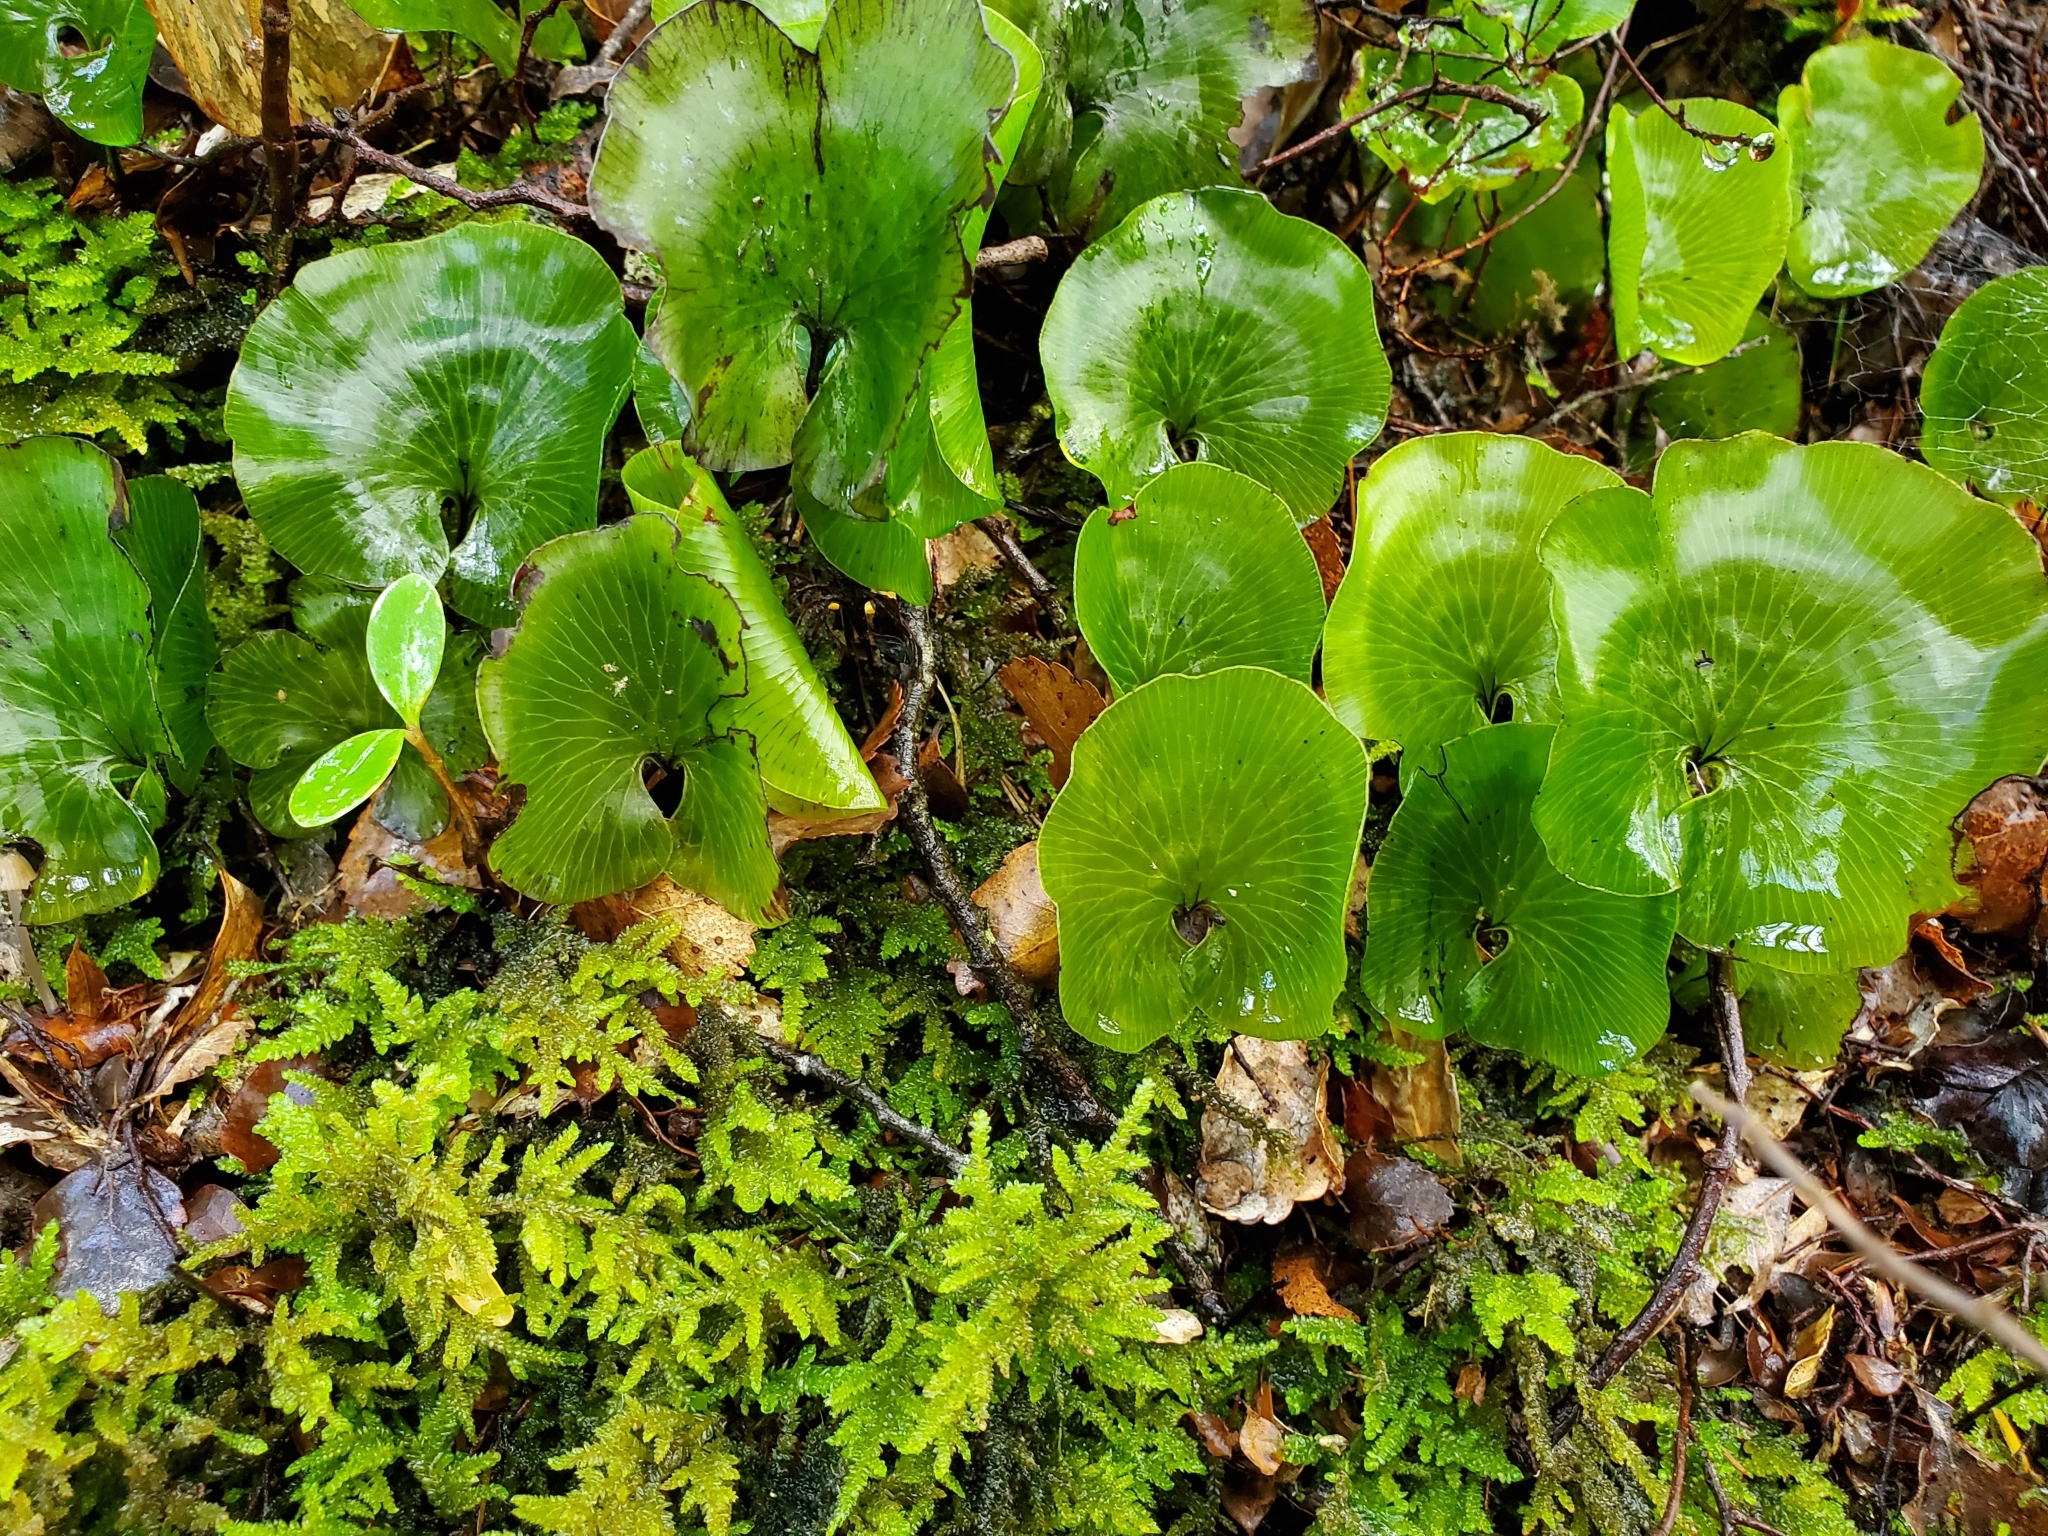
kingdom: Plantae
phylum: Tracheophyta
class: Polypodiopsida
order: Hymenophyllales
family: Hymenophyllaceae
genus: Hymenophyllum
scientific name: Hymenophyllum nephrophyllum
